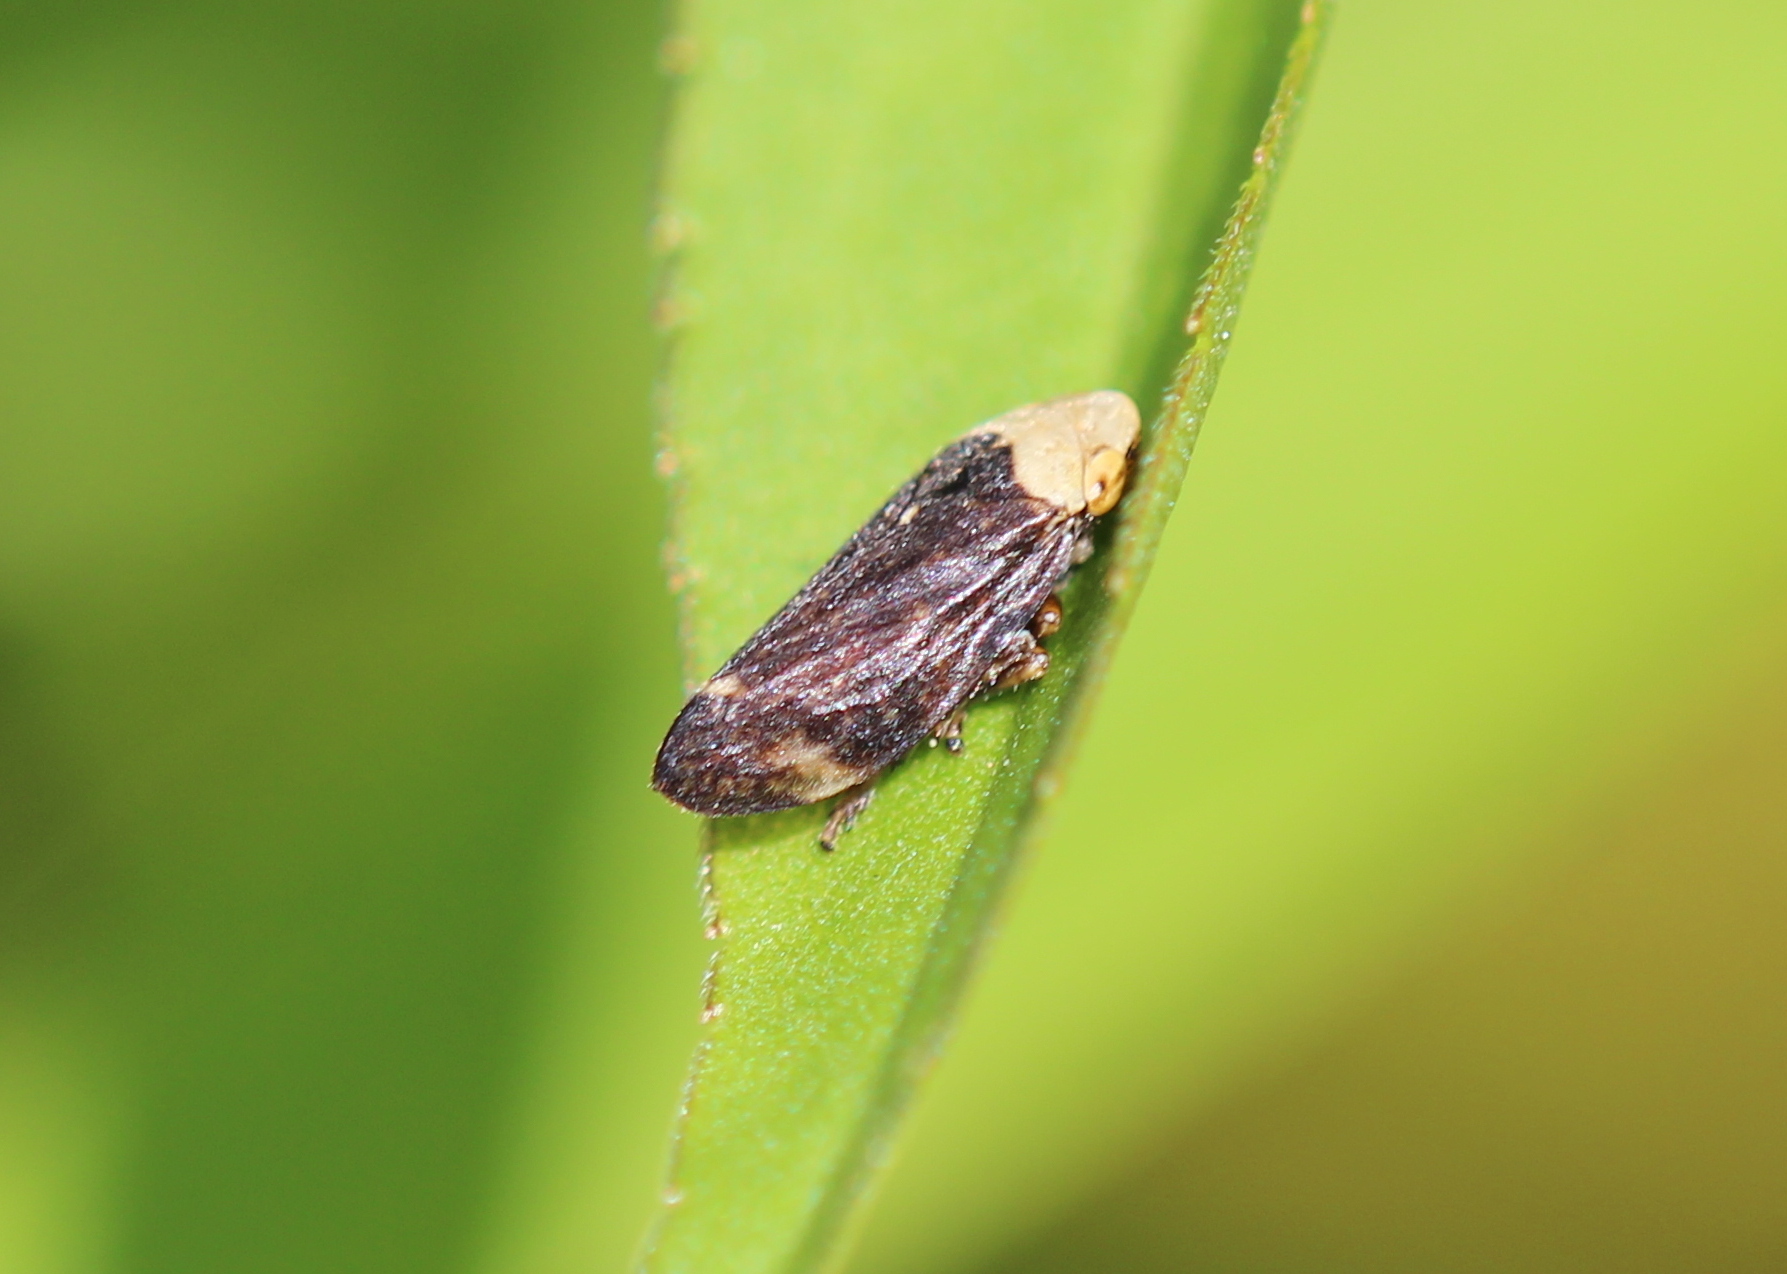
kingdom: Animalia
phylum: Arthropoda
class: Insecta
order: Hemiptera
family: Aphrophoridae
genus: Philaenus
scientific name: Philaenus spumarius
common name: Meadow spittlebug
